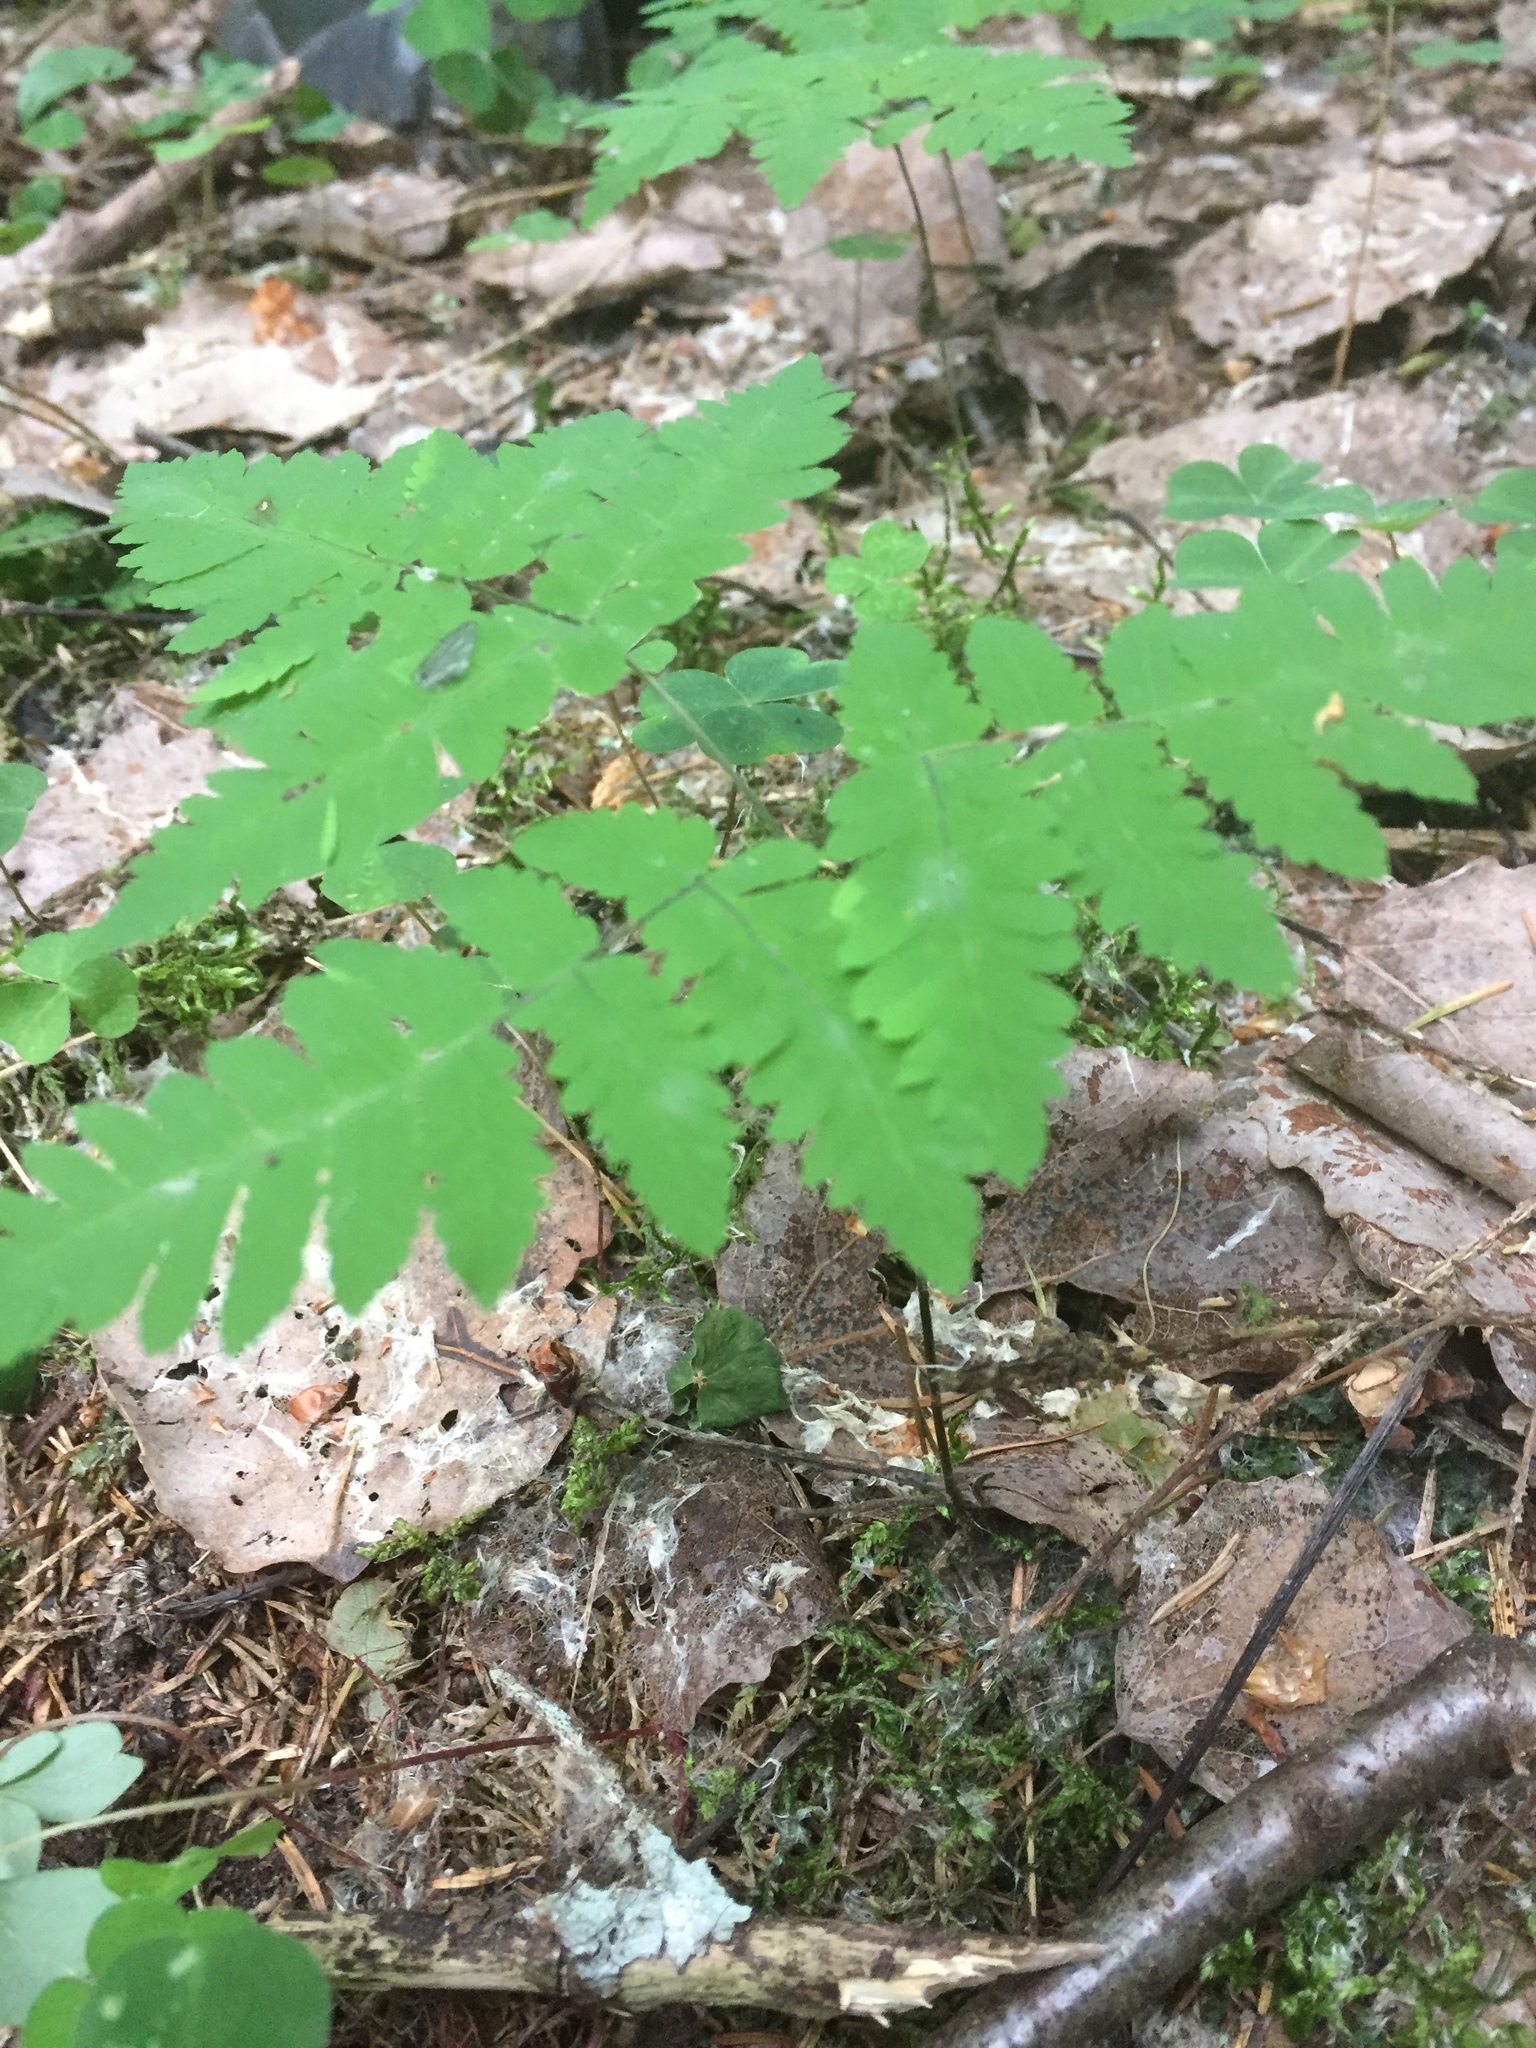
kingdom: Plantae
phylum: Tracheophyta
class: Polypodiopsida
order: Polypodiales
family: Cystopteridaceae
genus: Gymnocarpium
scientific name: Gymnocarpium dryopteris
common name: Oak fern
